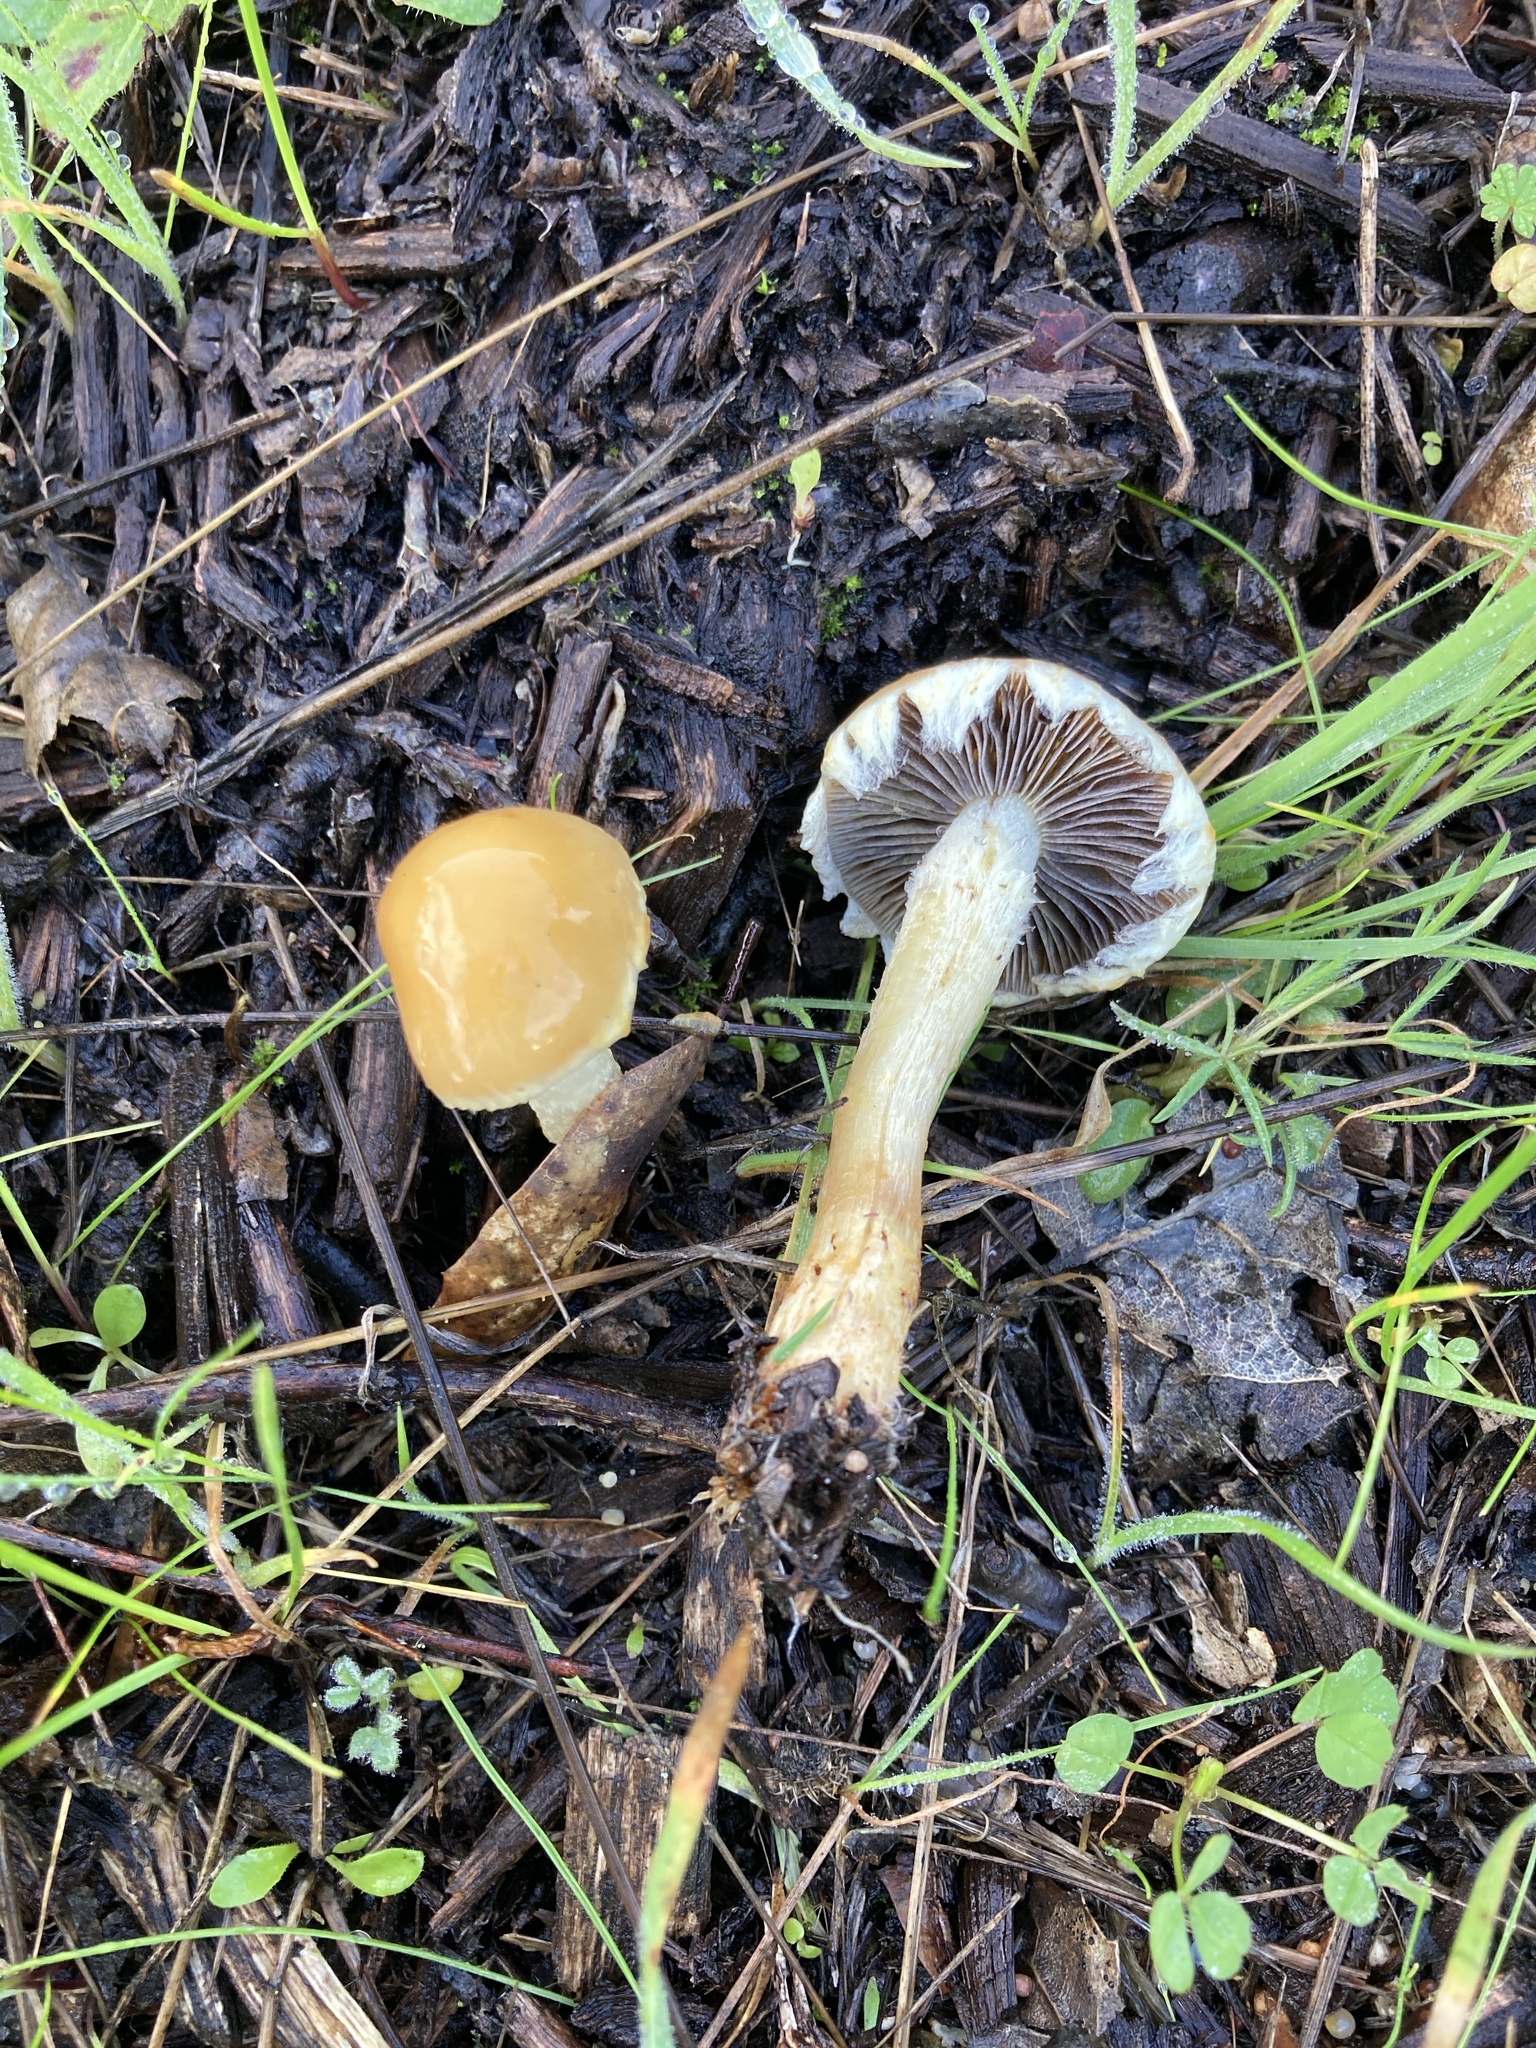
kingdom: Fungi
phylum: Basidiomycota
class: Agaricomycetes
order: Agaricales
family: Strophariaceae
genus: Leratiomyces
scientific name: Leratiomyces percevalii
